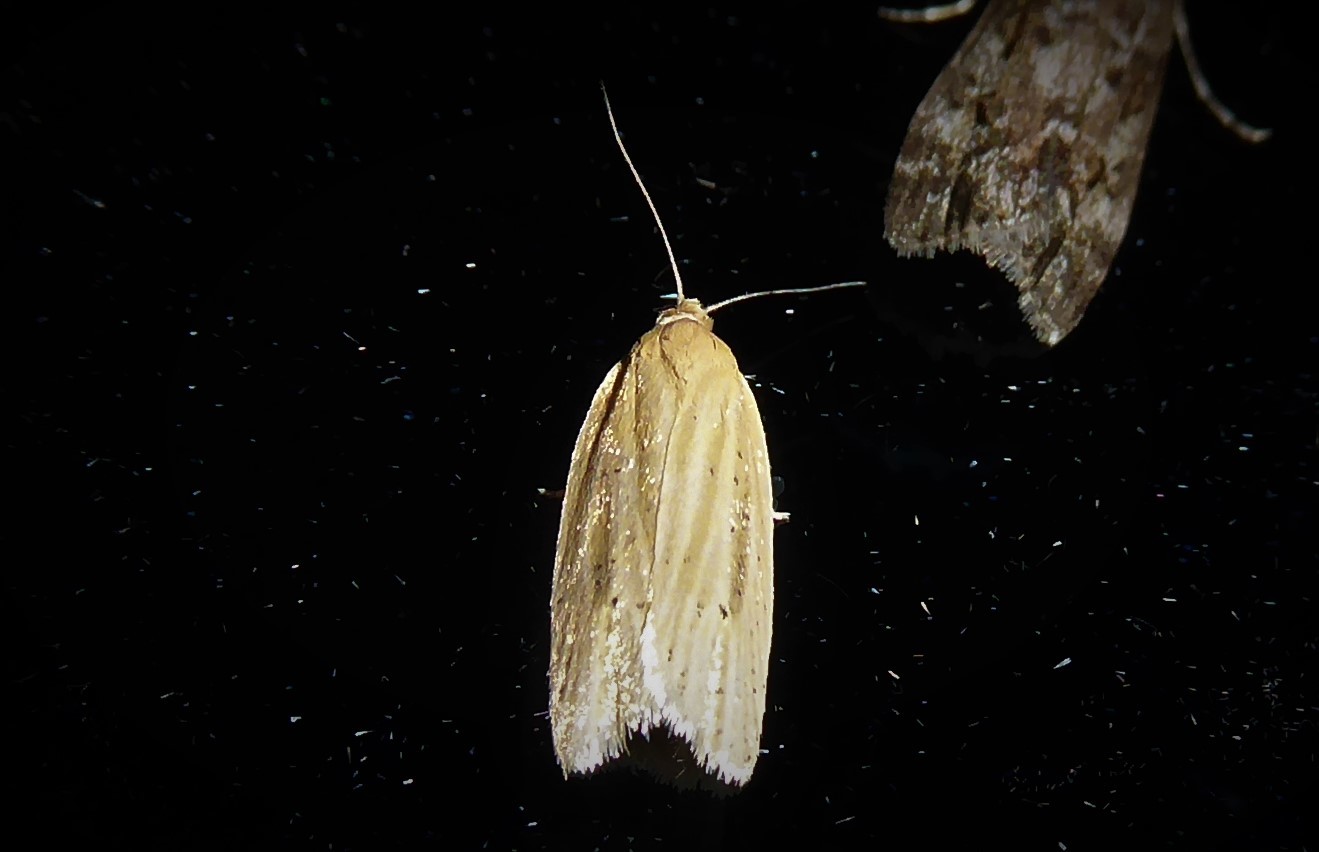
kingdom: Animalia
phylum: Arthropoda
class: Insecta
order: Lepidoptera
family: Tortricidae
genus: Clepsis
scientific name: Clepsis
